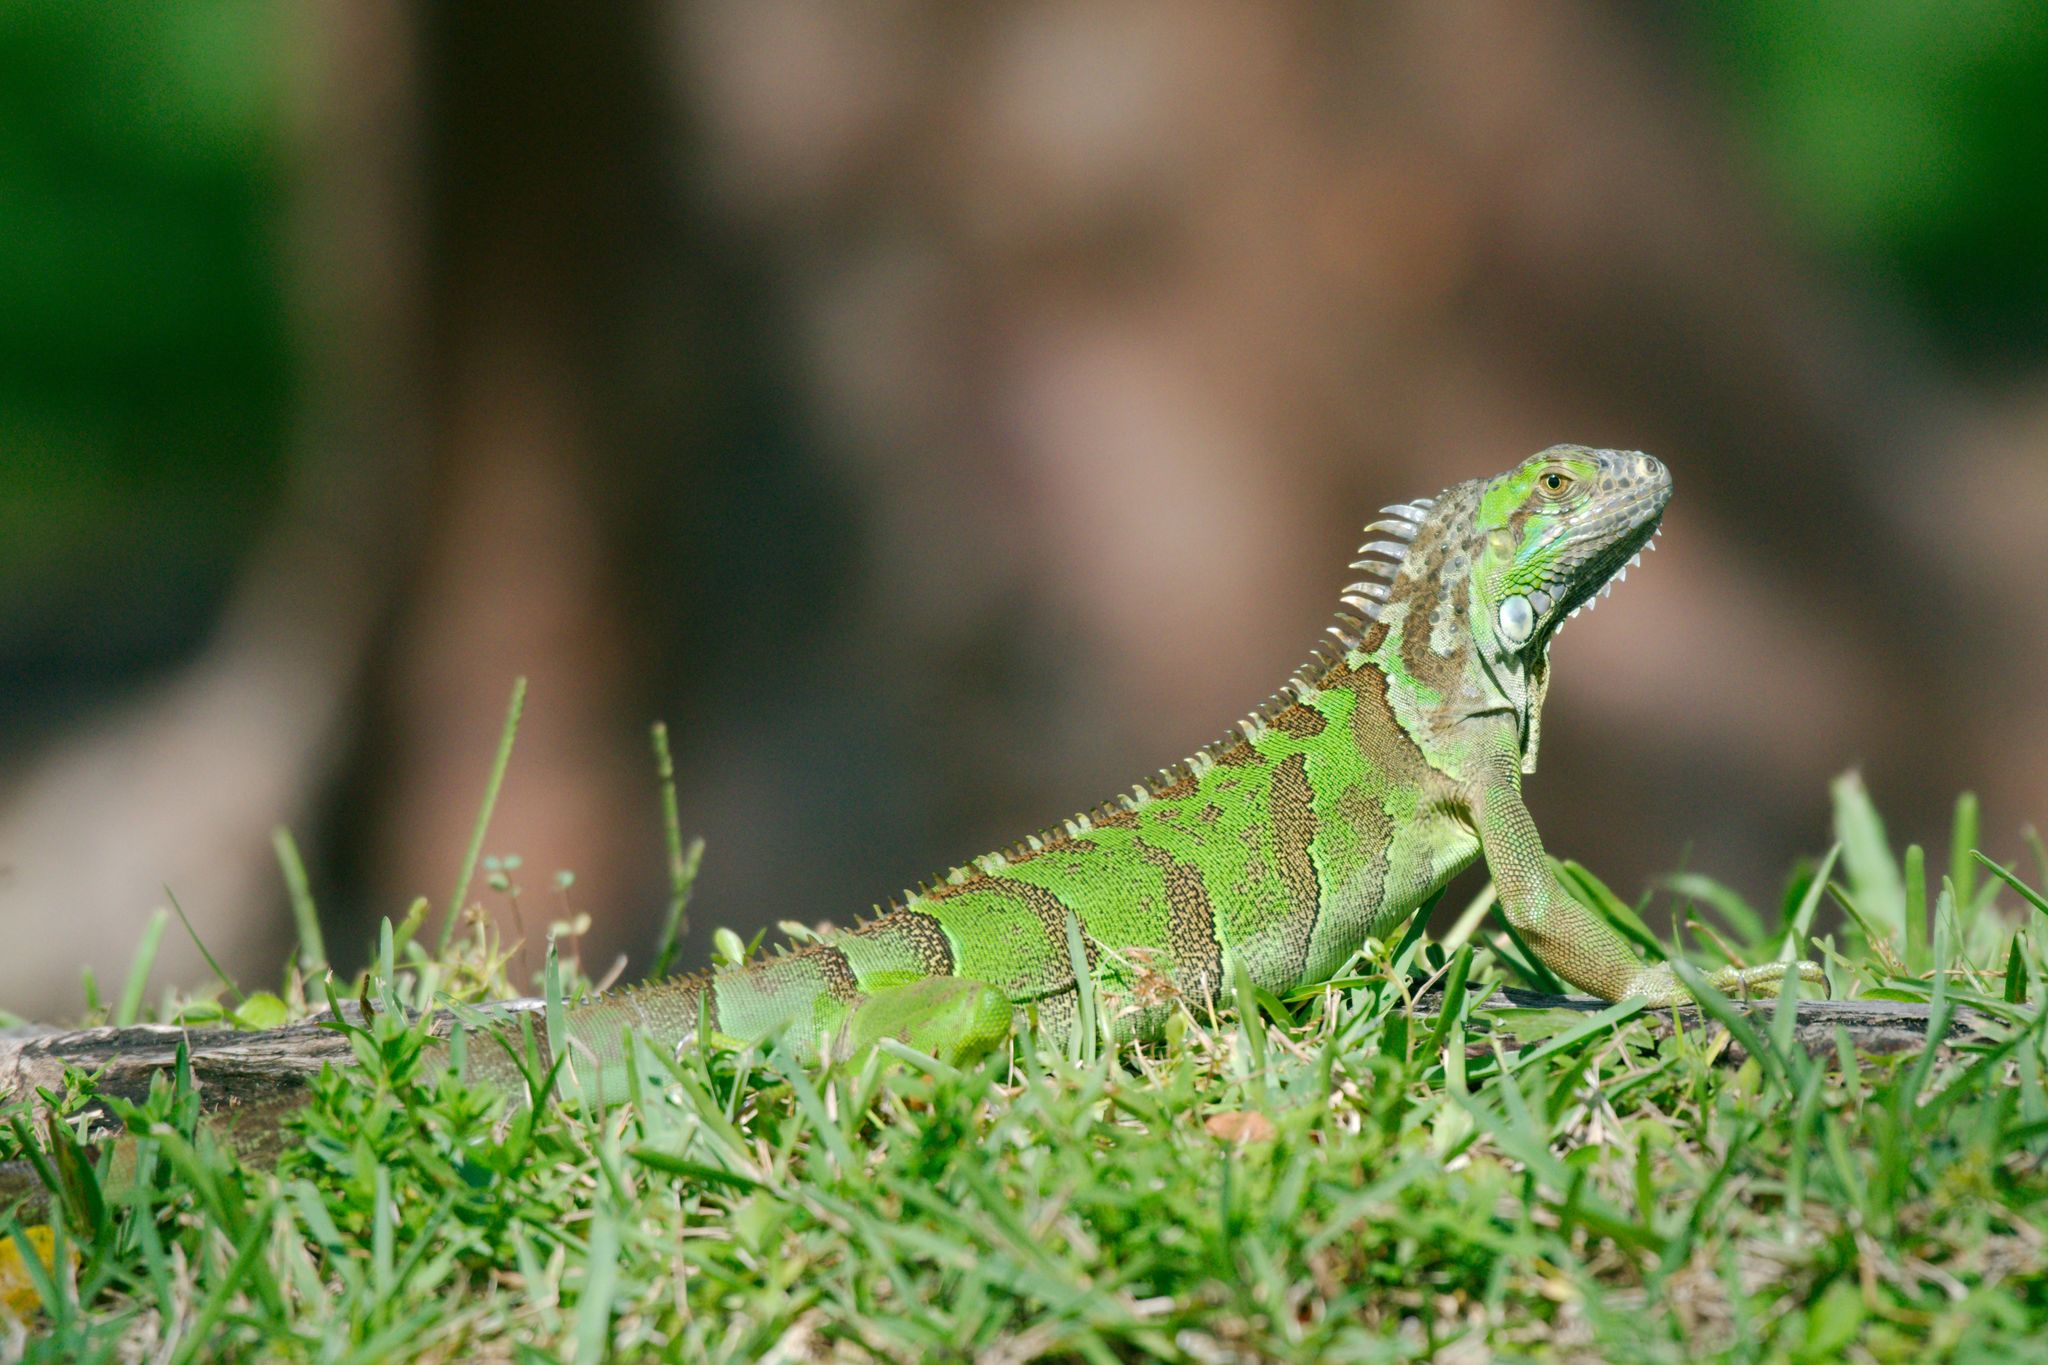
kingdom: Animalia
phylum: Chordata
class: Squamata
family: Iguanidae
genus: Iguana
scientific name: Iguana iguana
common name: Green iguana
